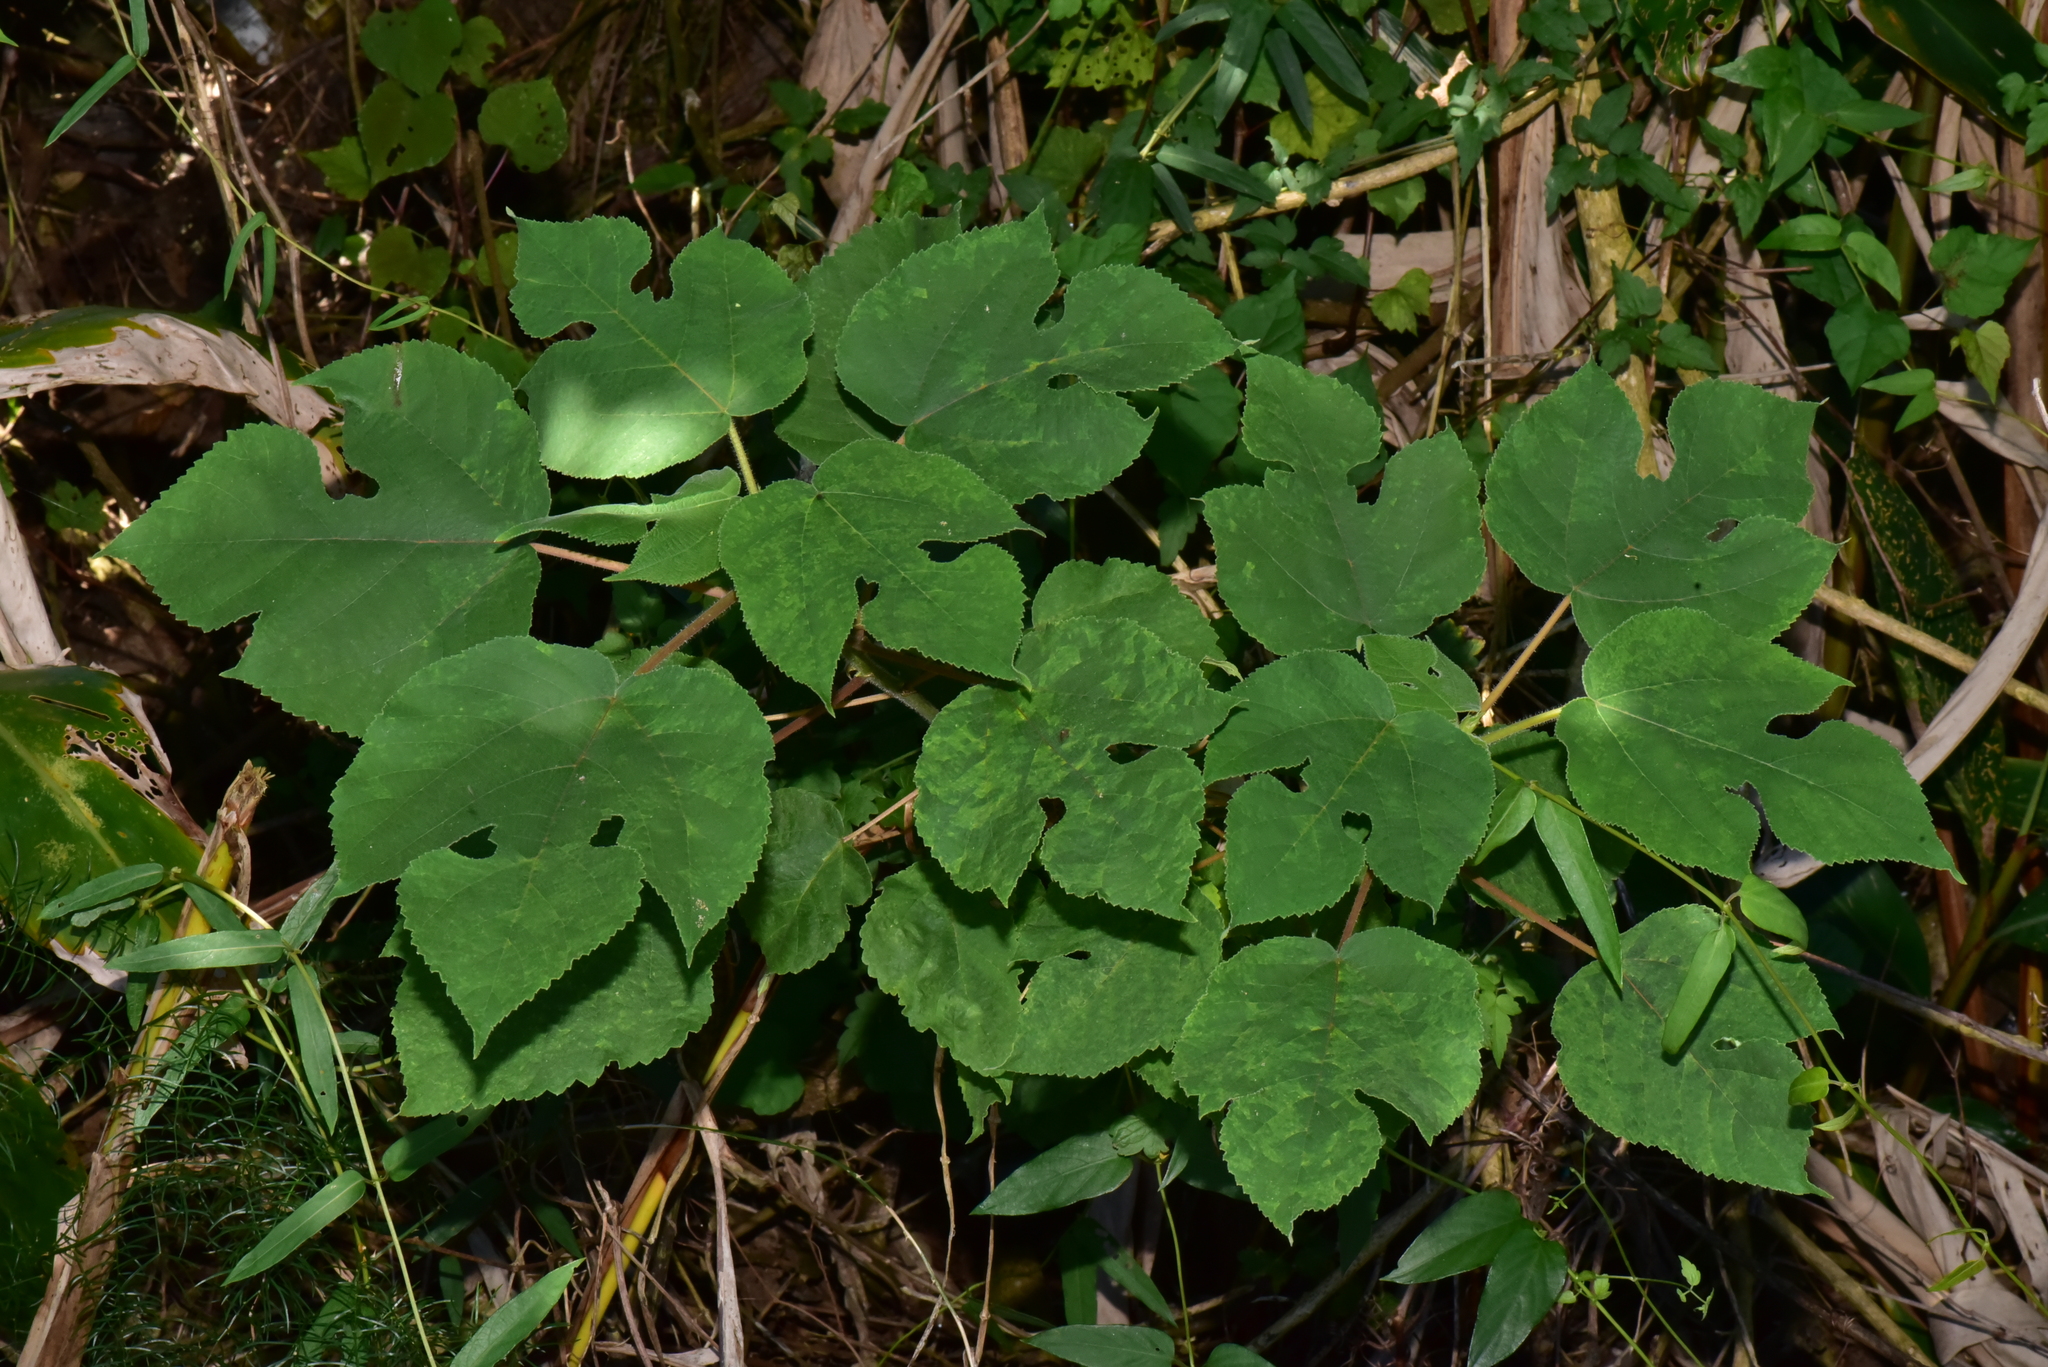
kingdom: Plantae
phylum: Tracheophyta
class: Magnoliopsida
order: Rosales
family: Moraceae
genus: Broussonetia
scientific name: Broussonetia papyrifera
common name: Paper mulberry
